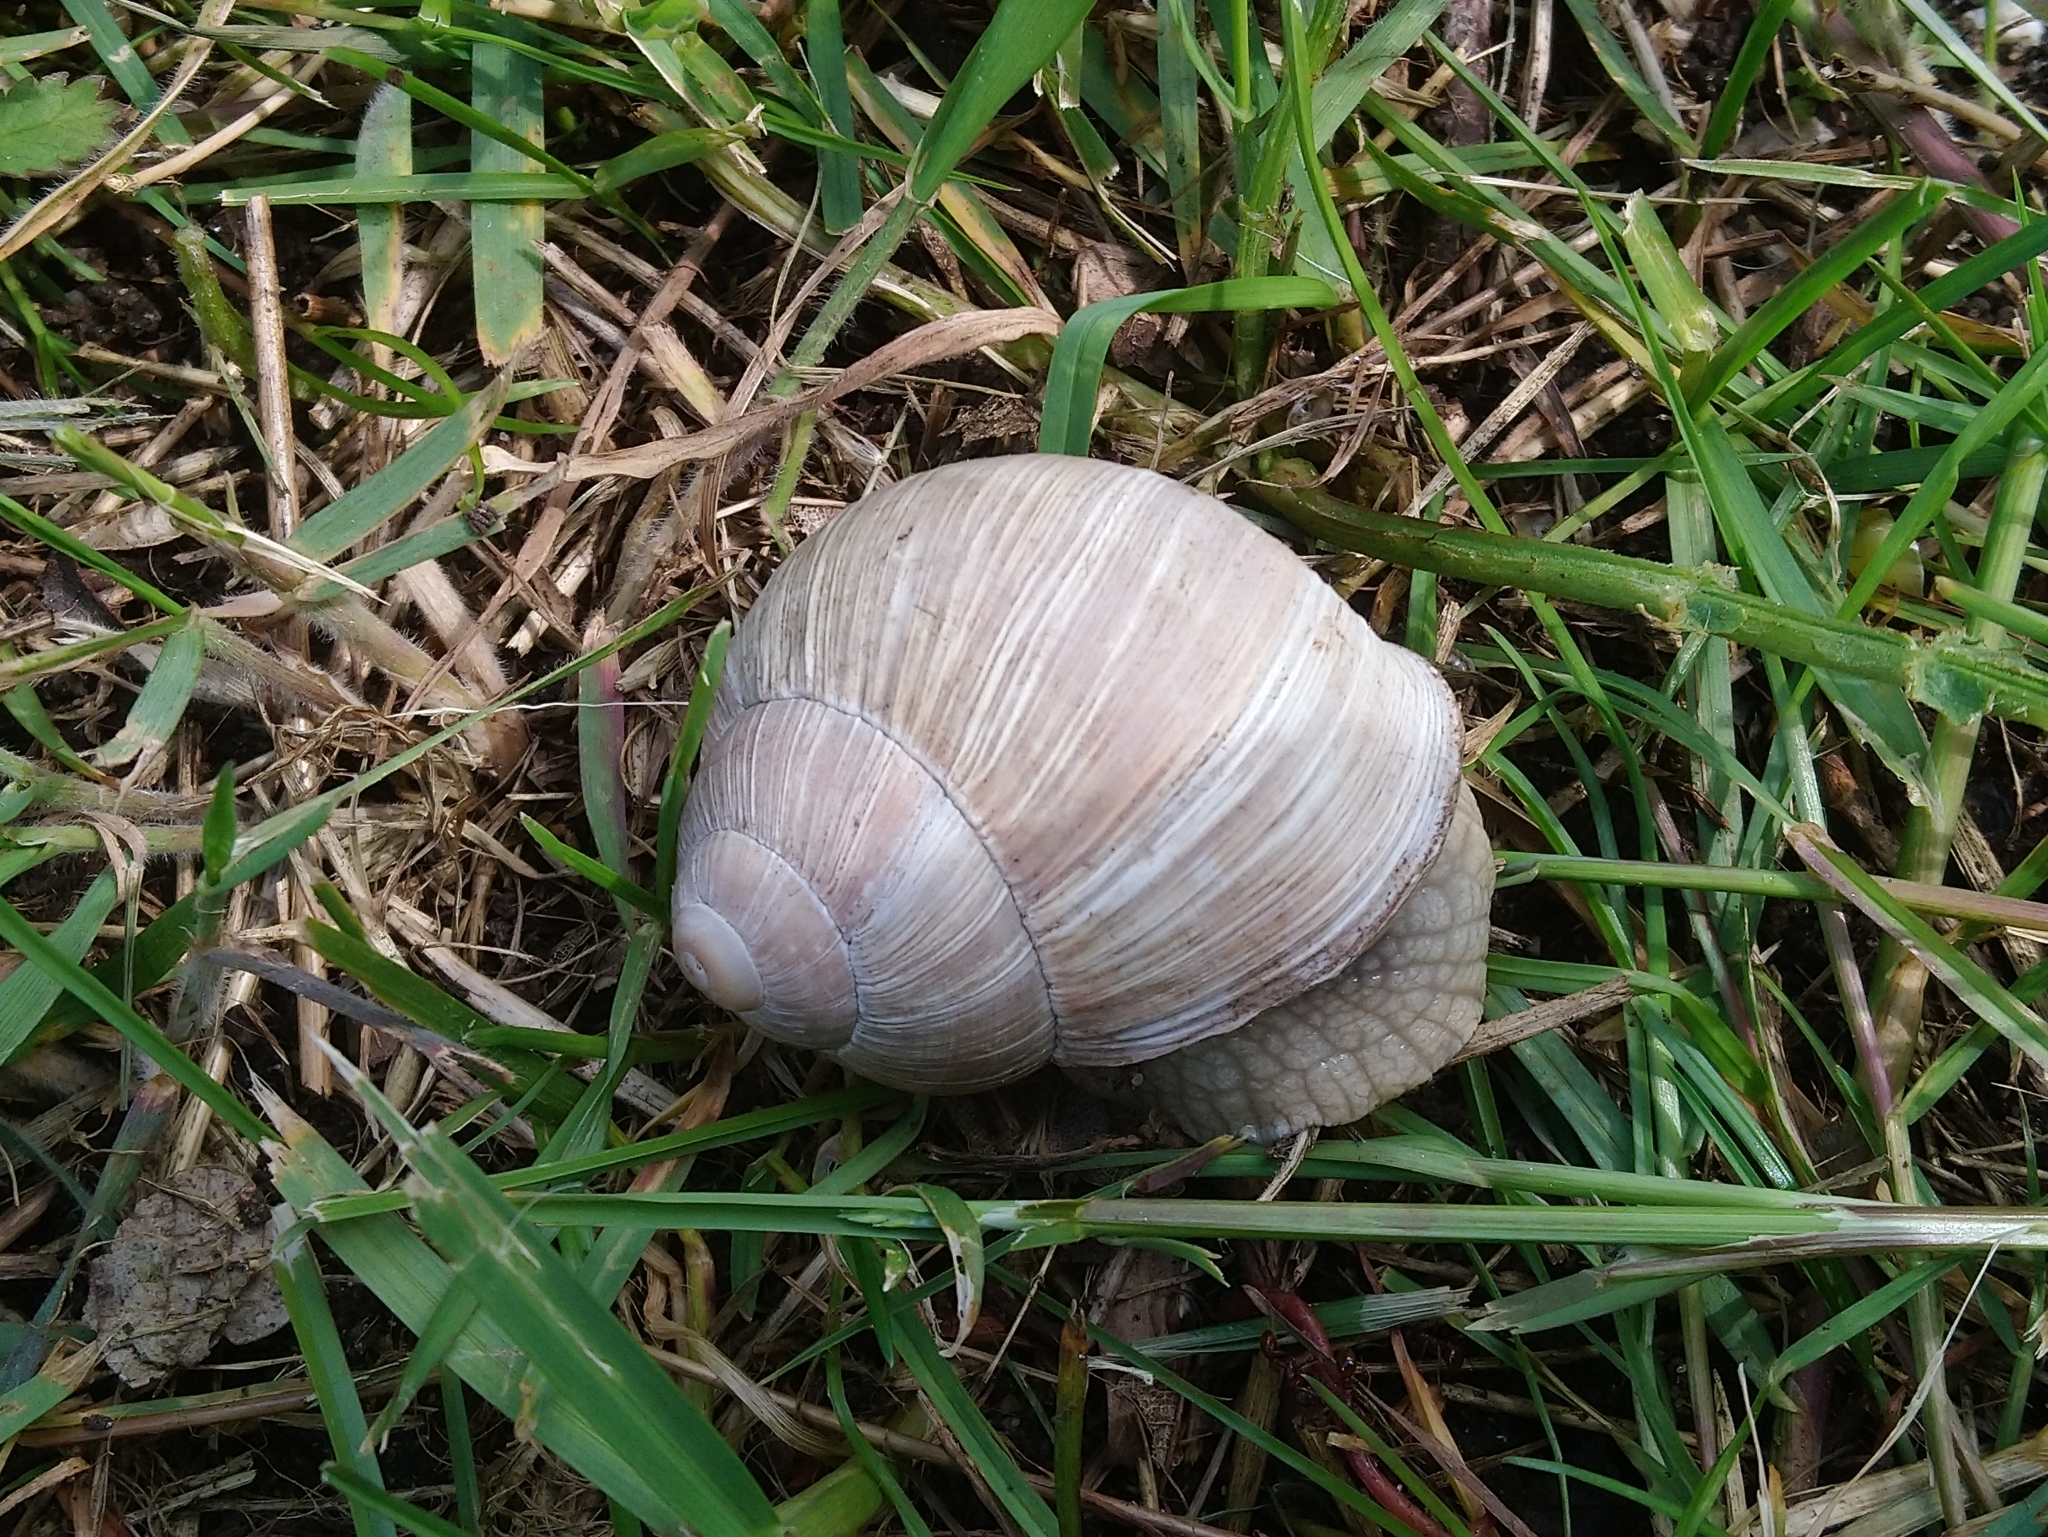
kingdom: Animalia
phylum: Mollusca
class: Gastropoda
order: Stylommatophora
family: Helicidae
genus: Helix
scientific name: Helix pomatia
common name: Roman snail
